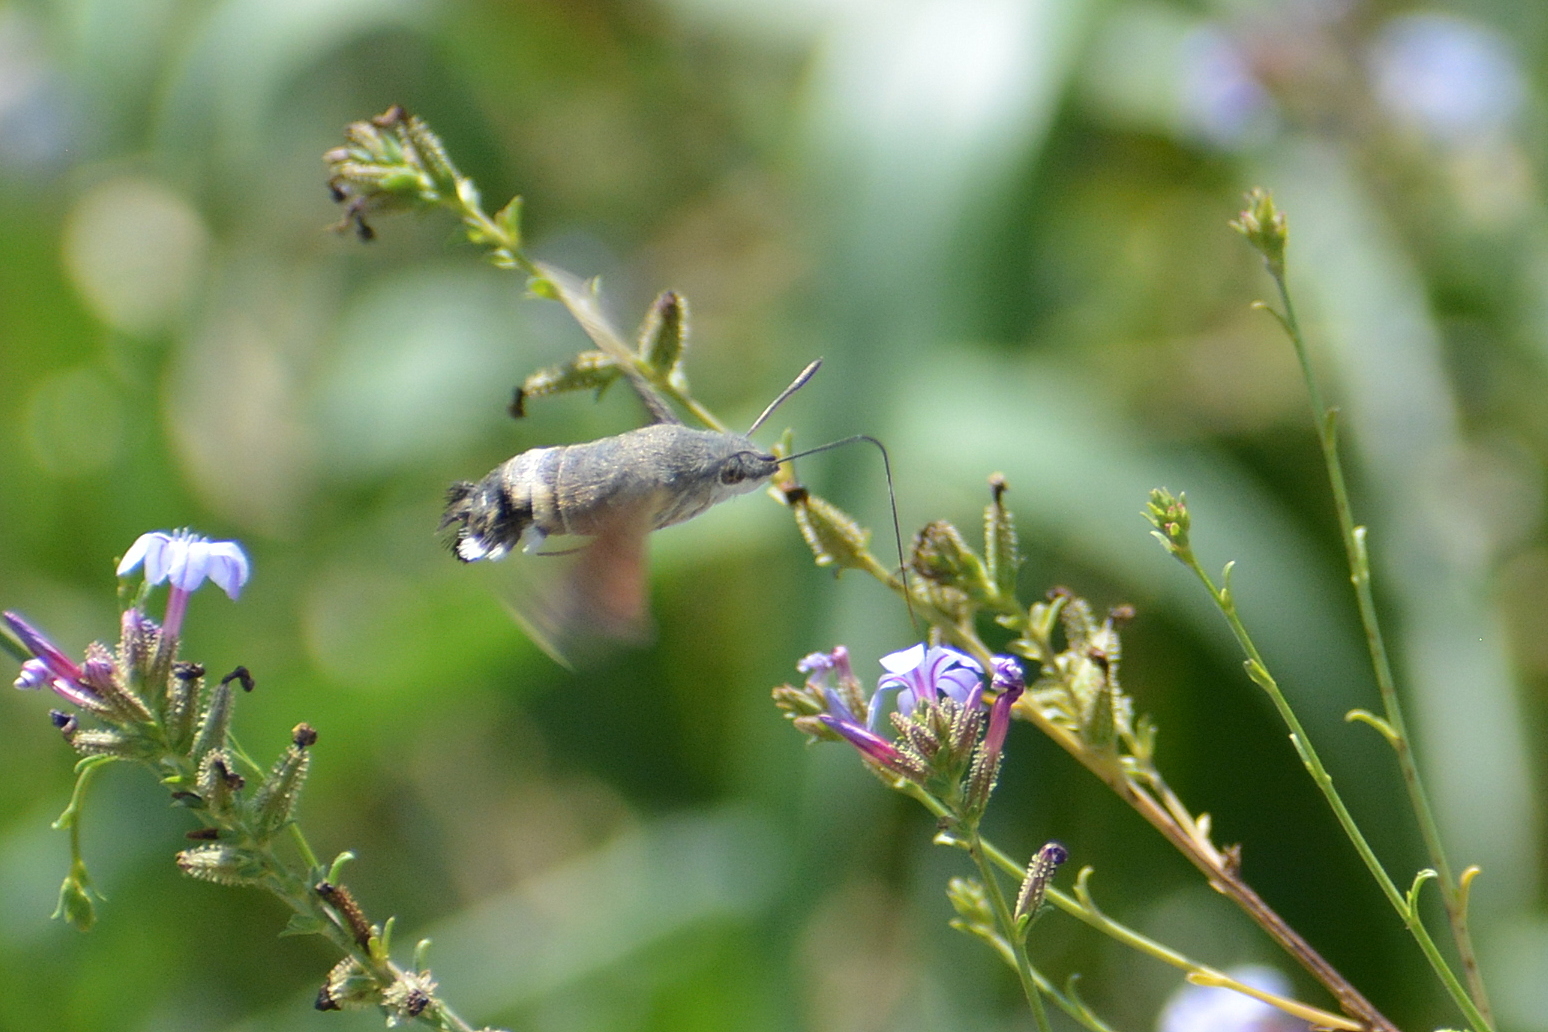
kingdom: Animalia
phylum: Arthropoda
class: Insecta
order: Lepidoptera
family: Sphingidae
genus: Macroglossum
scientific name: Macroglossum stellatarum
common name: Humming-bird hawk-moth
